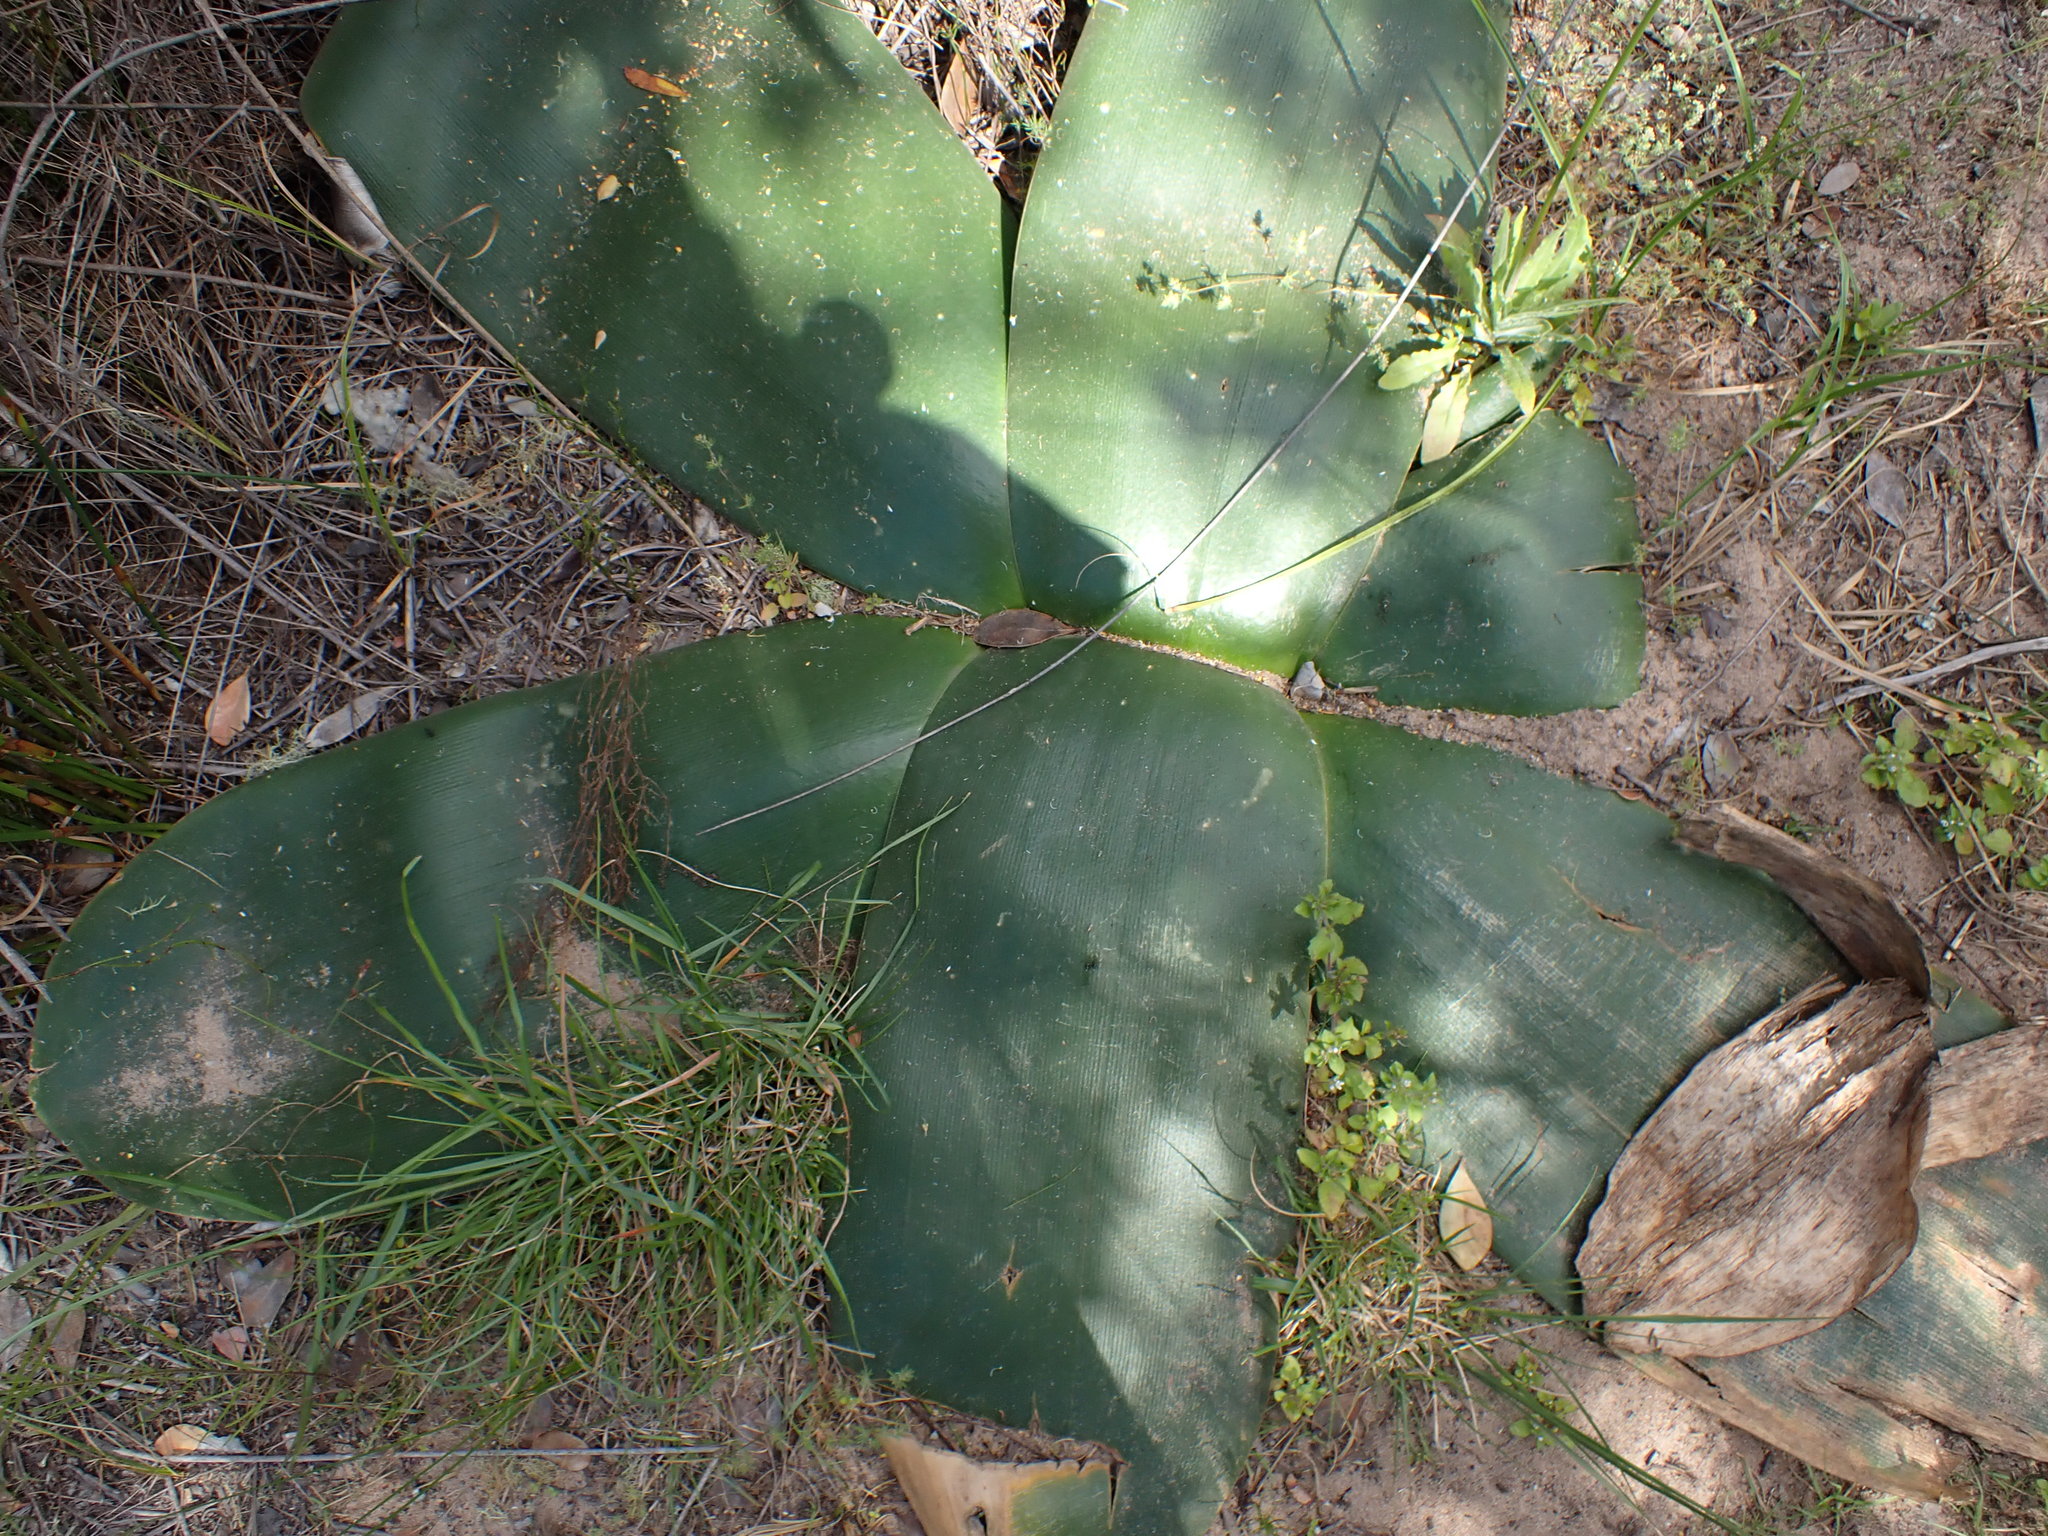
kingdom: Plantae
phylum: Tracheophyta
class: Liliopsida
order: Asparagales
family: Amaryllidaceae
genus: Brunsvigia
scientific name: Brunsvigia orientalis
